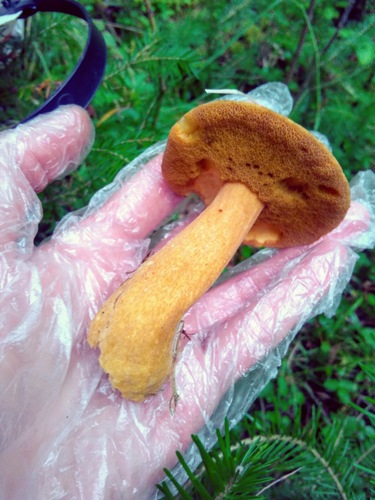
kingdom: Fungi
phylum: Basidiomycota
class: Agaricomycetes
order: Boletales
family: Suillaceae
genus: Suillus
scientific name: Suillus variegatus
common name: Velvet bolete
